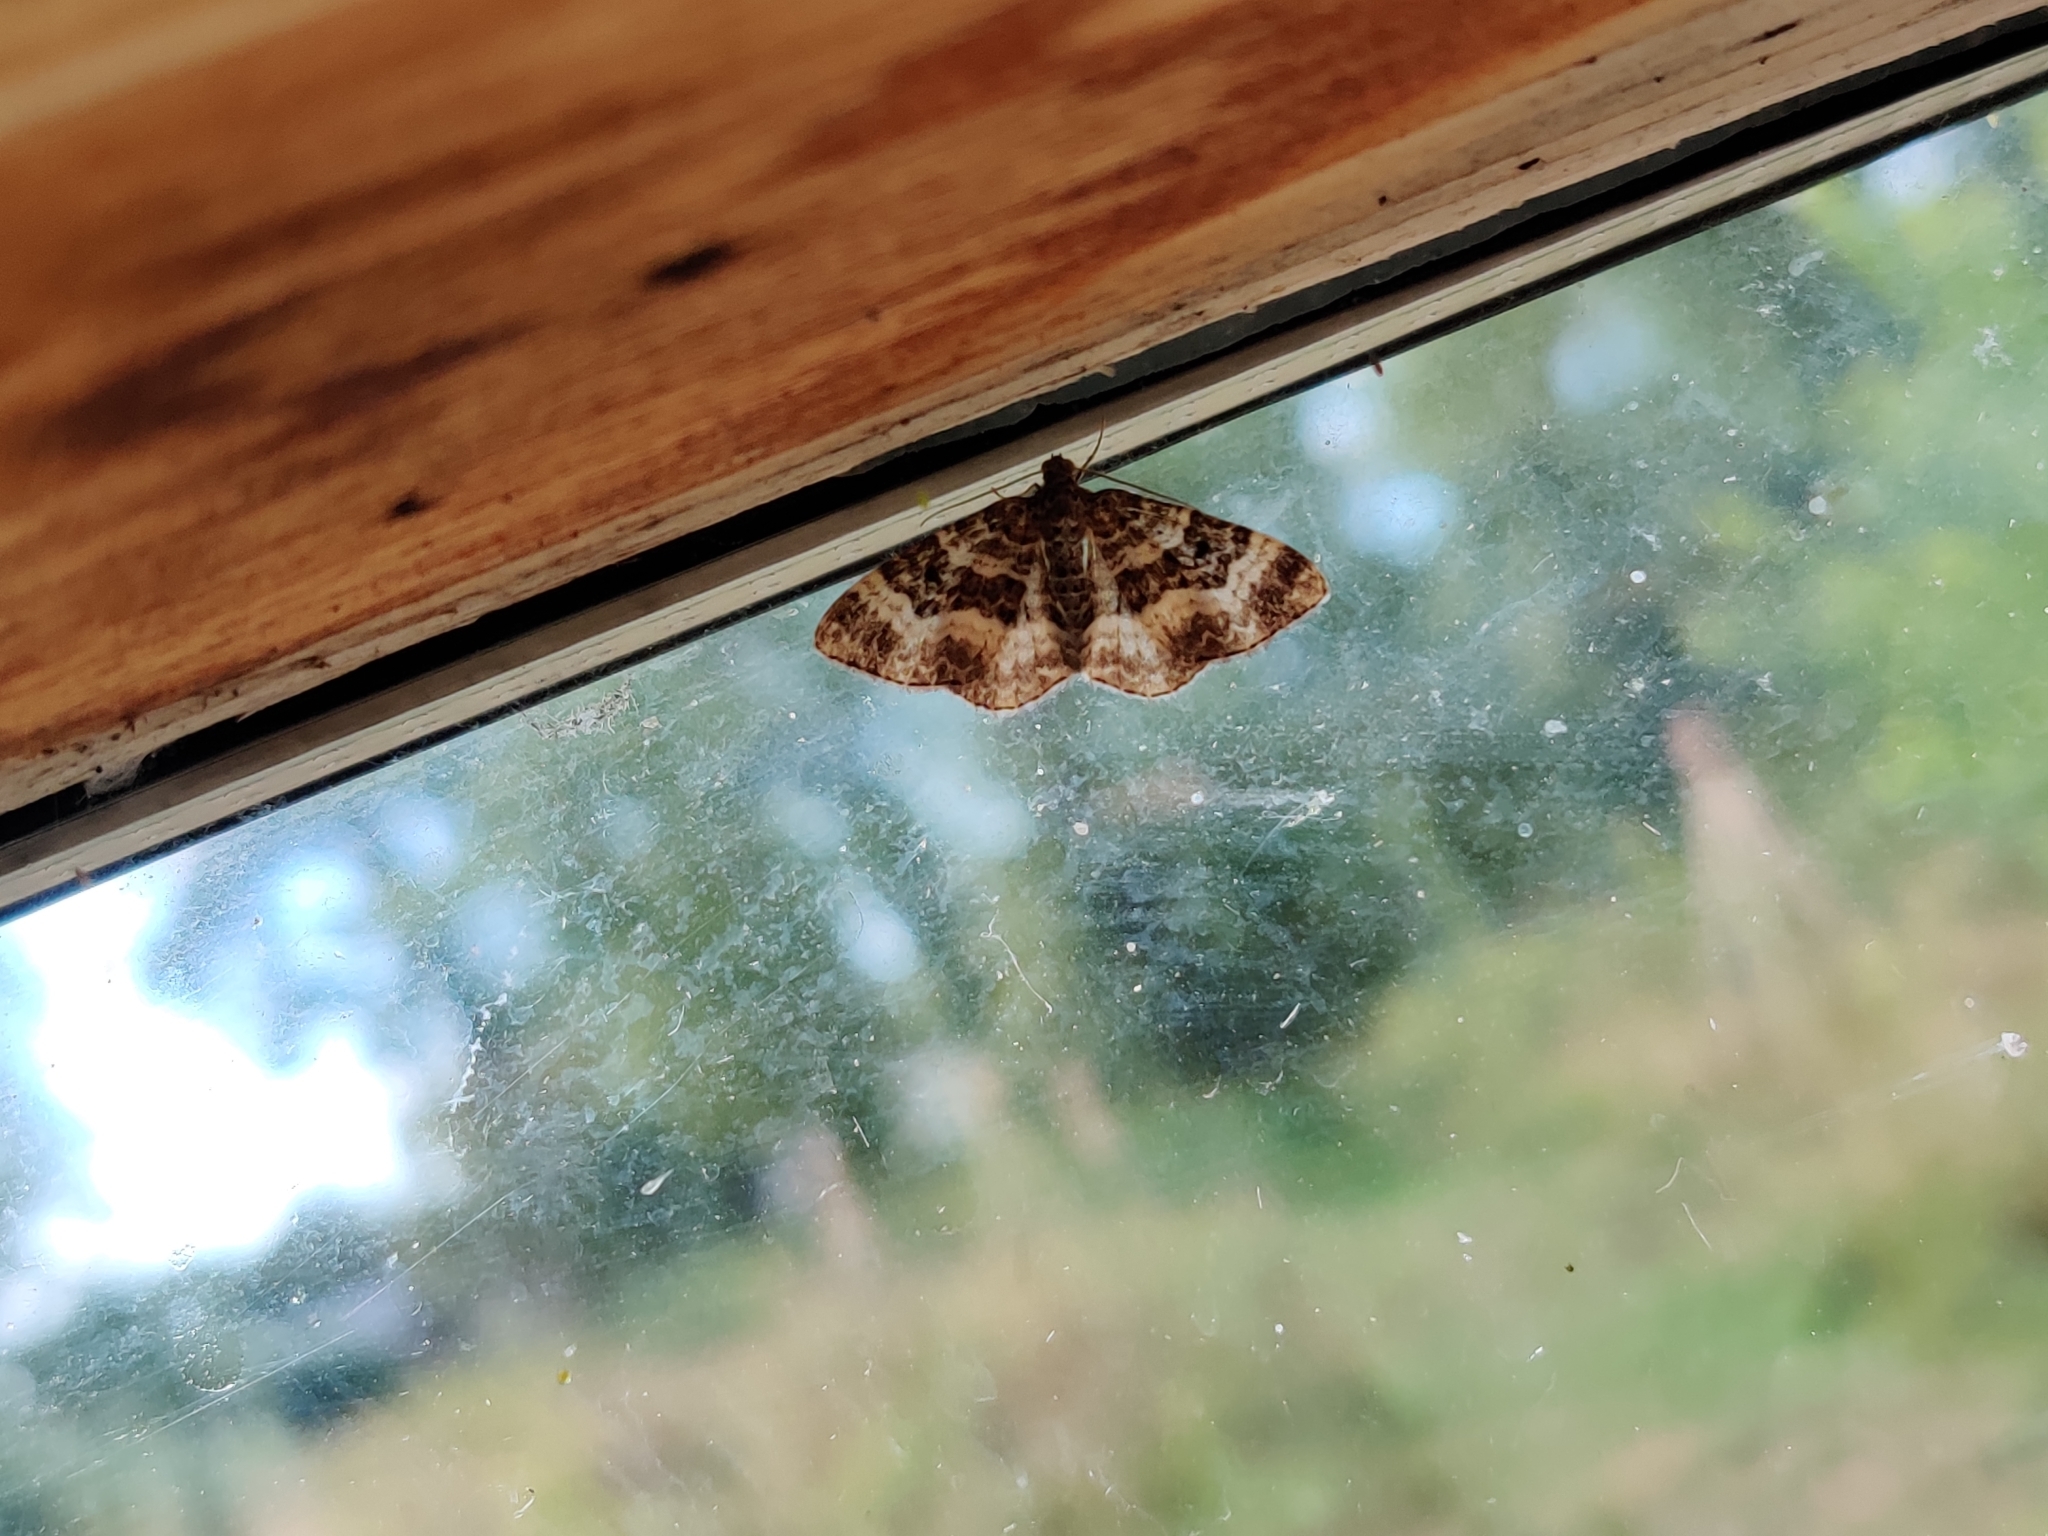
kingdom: Animalia
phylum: Arthropoda
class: Insecta
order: Lepidoptera
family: Geometridae
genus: Epirrhoe
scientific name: Epirrhoe alternata
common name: Common carpet
